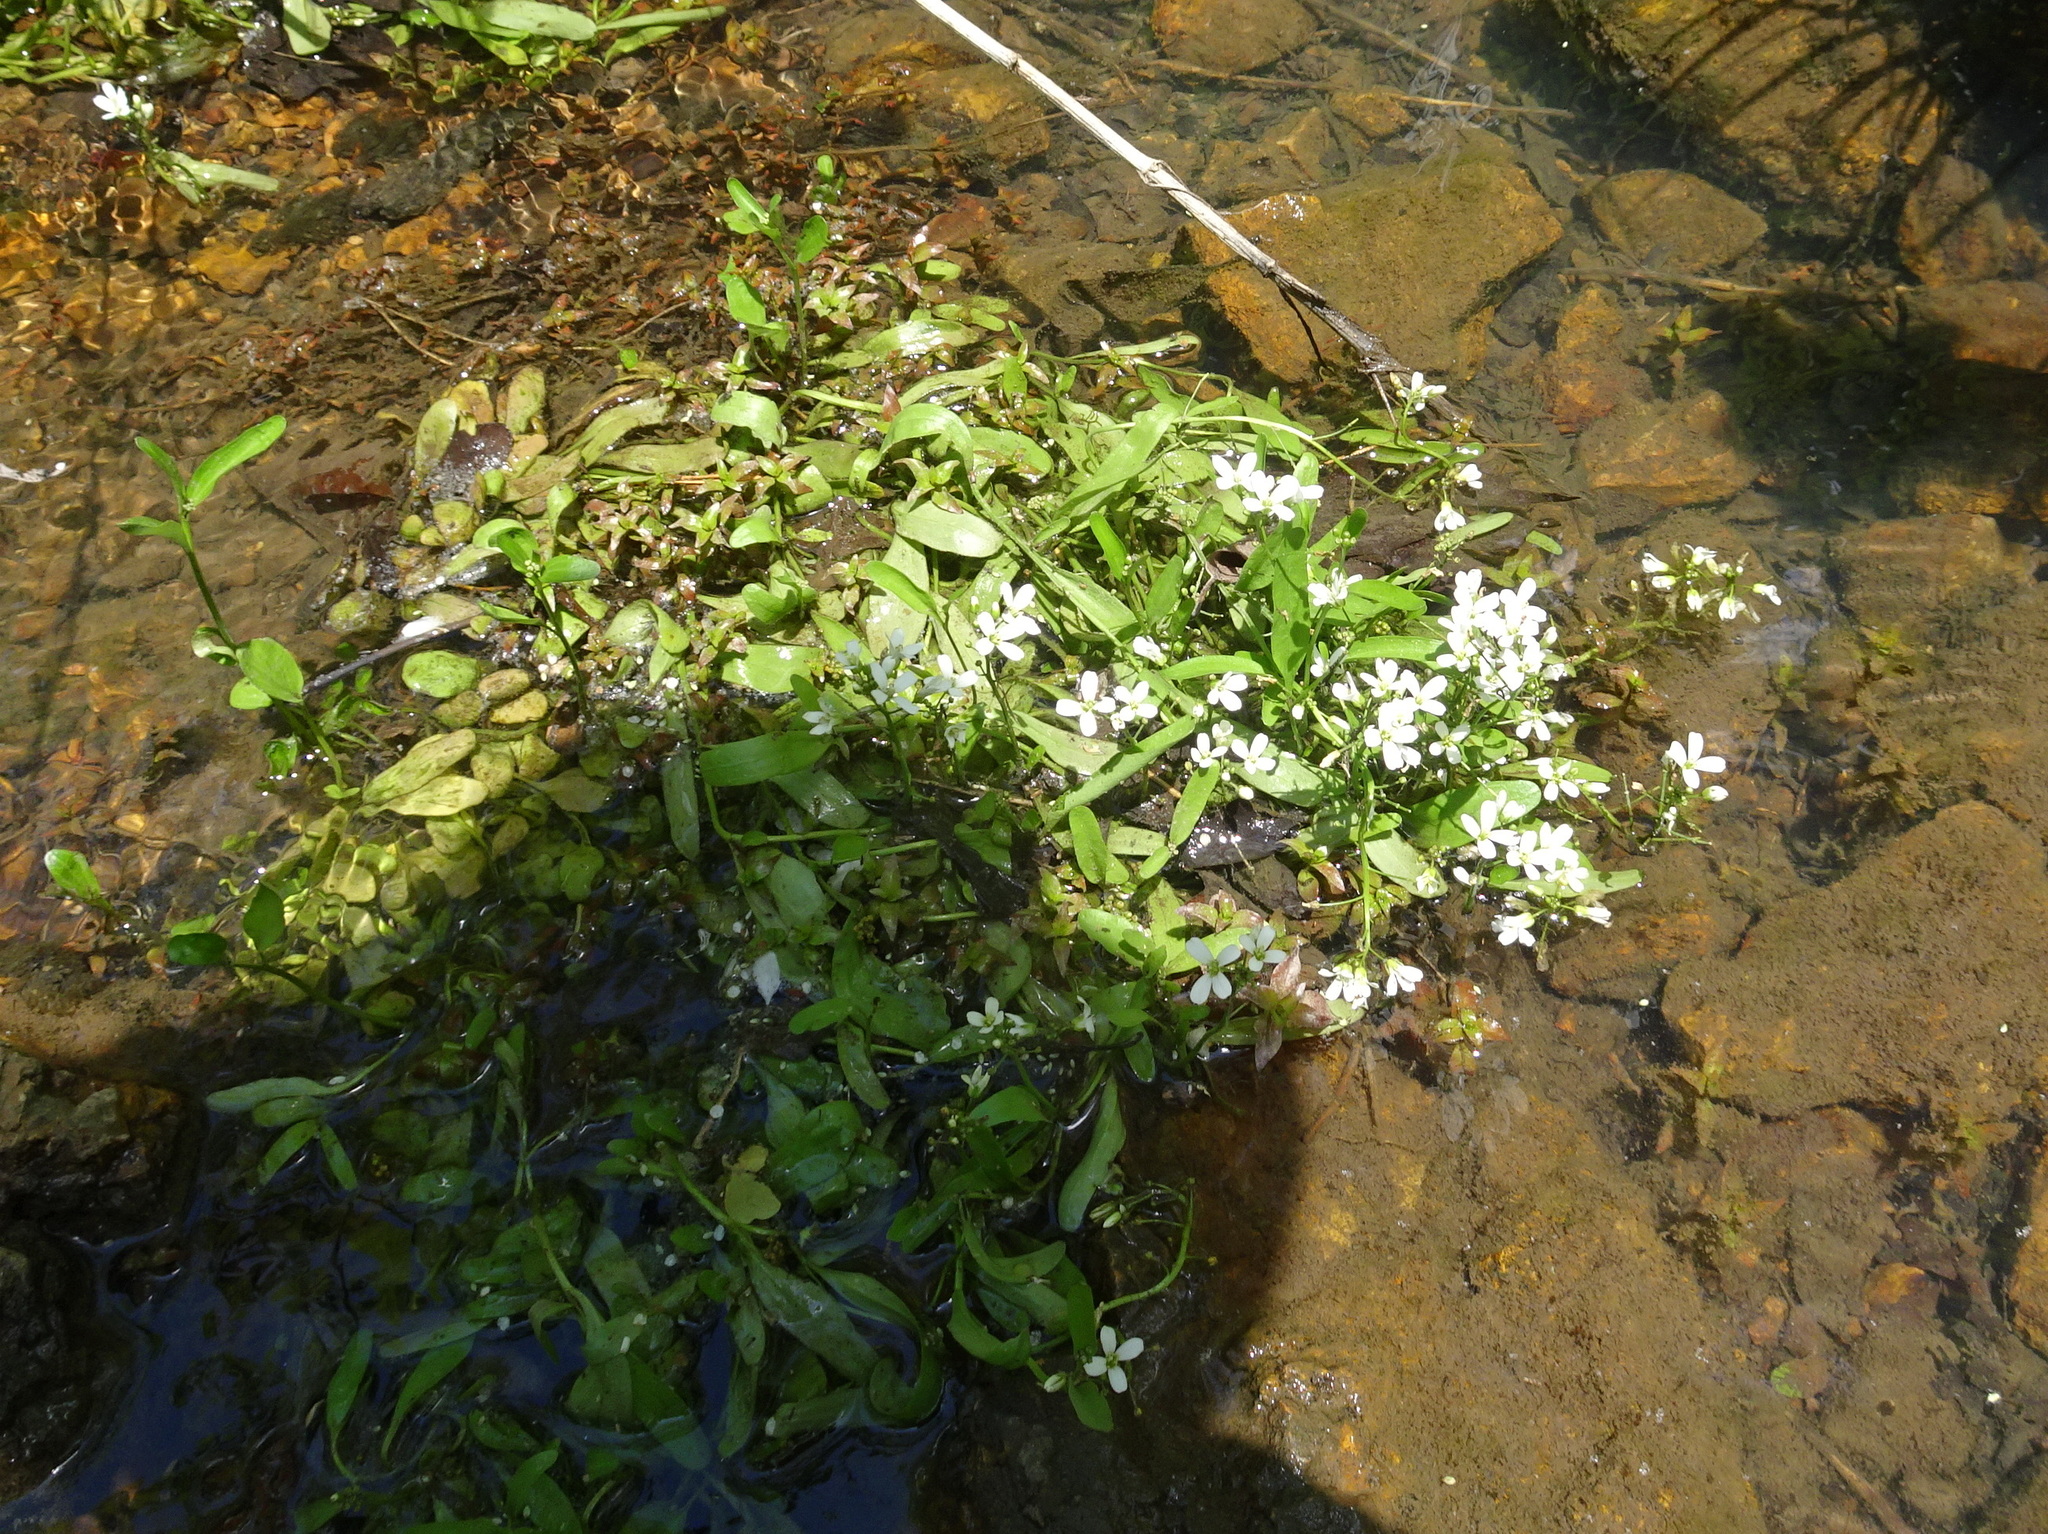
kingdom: Plantae
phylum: Tracheophyta
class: Magnoliopsida
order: Brassicales
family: Brassicaceae
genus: Nasturtium
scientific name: Nasturtium officinale
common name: Watercress
